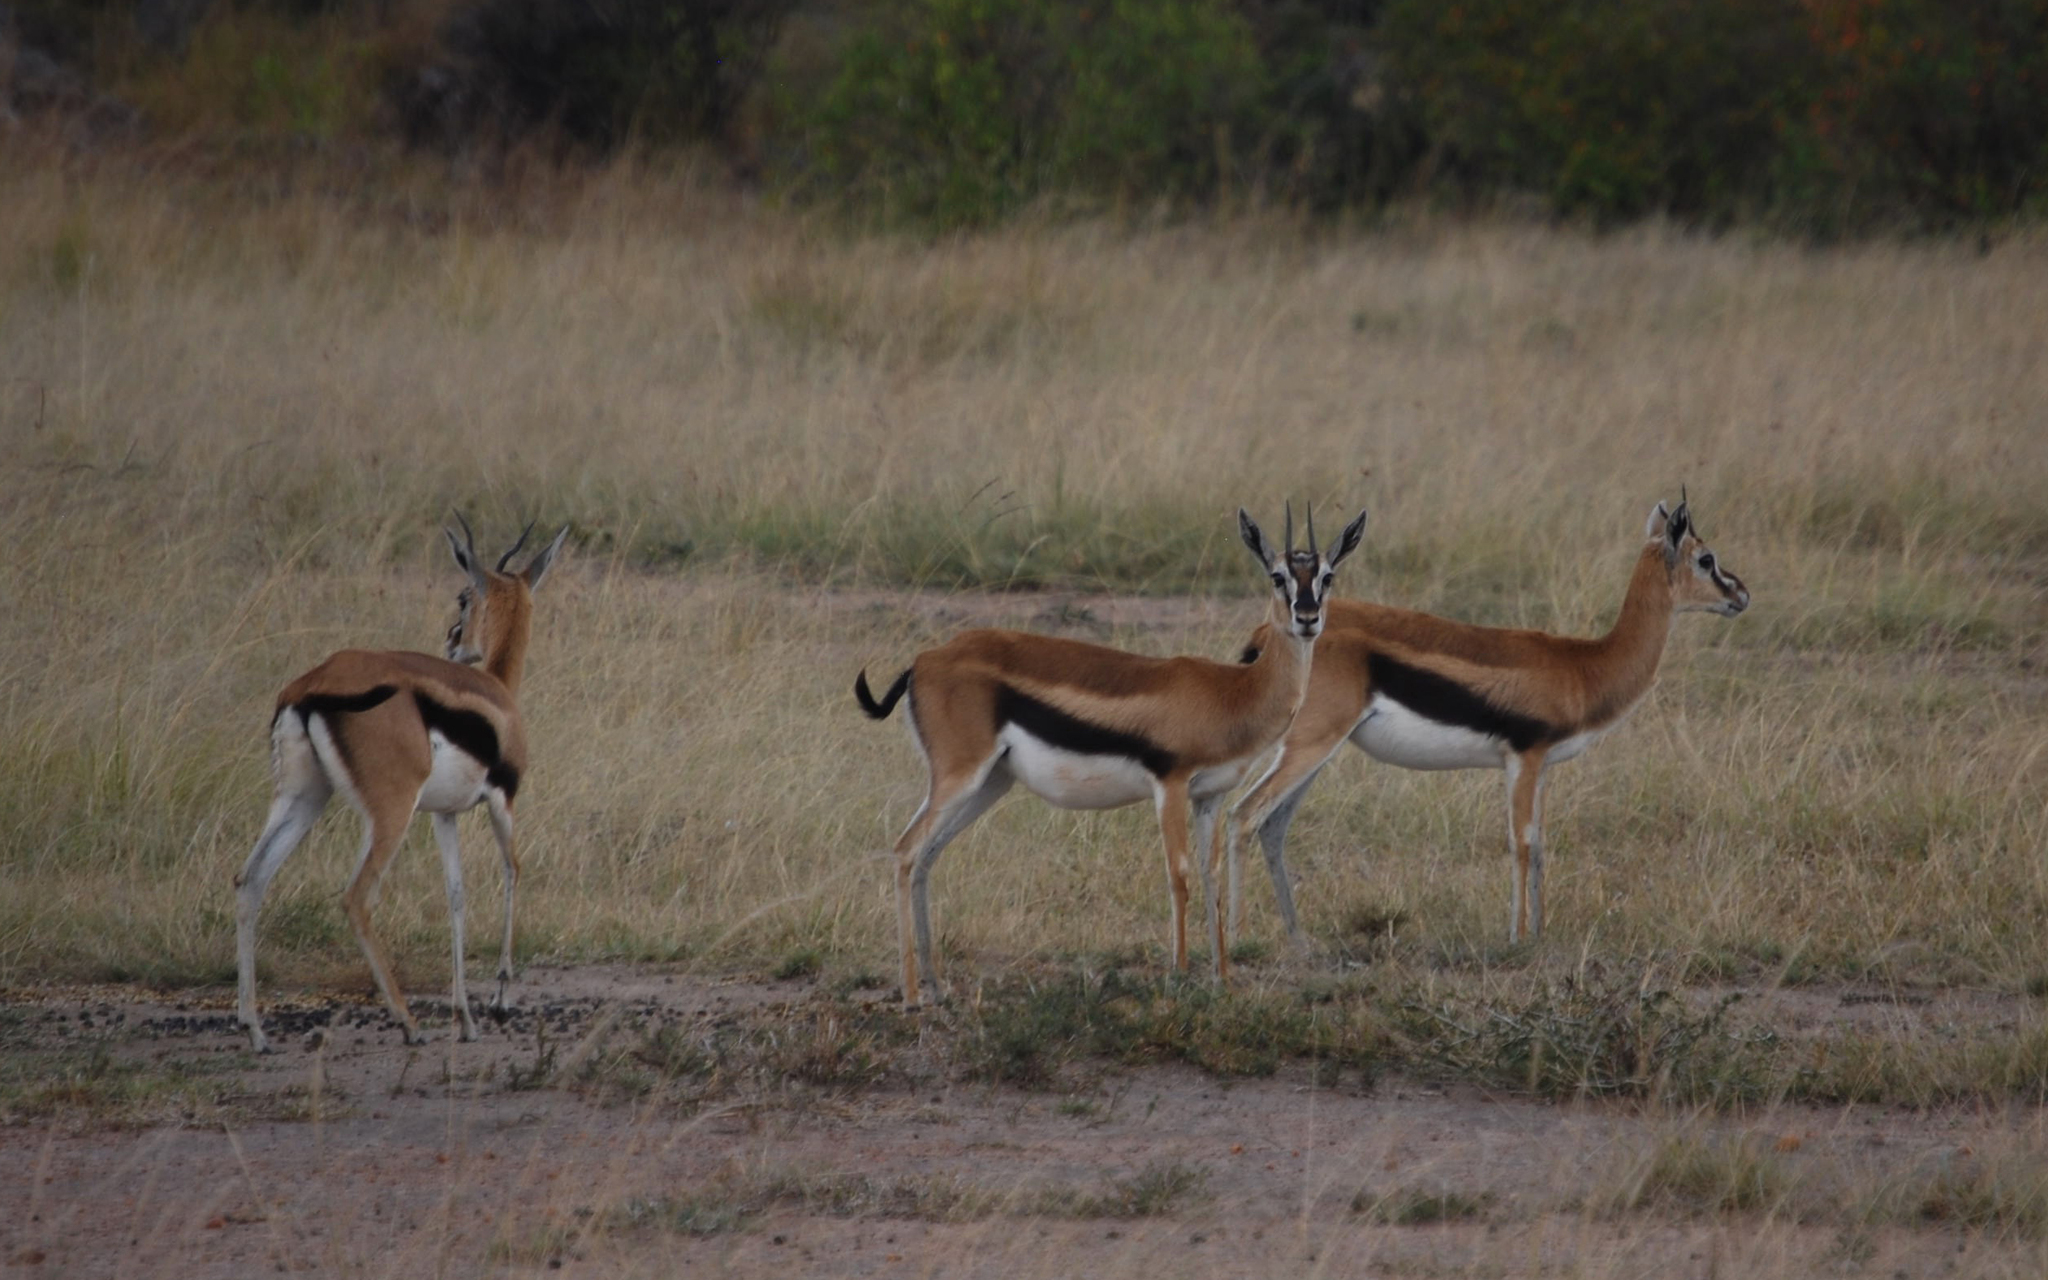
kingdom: Animalia
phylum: Chordata
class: Mammalia
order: Artiodactyla
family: Bovidae
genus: Eudorcas
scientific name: Eudorcas thomsonii
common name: Thomson's gazelle
